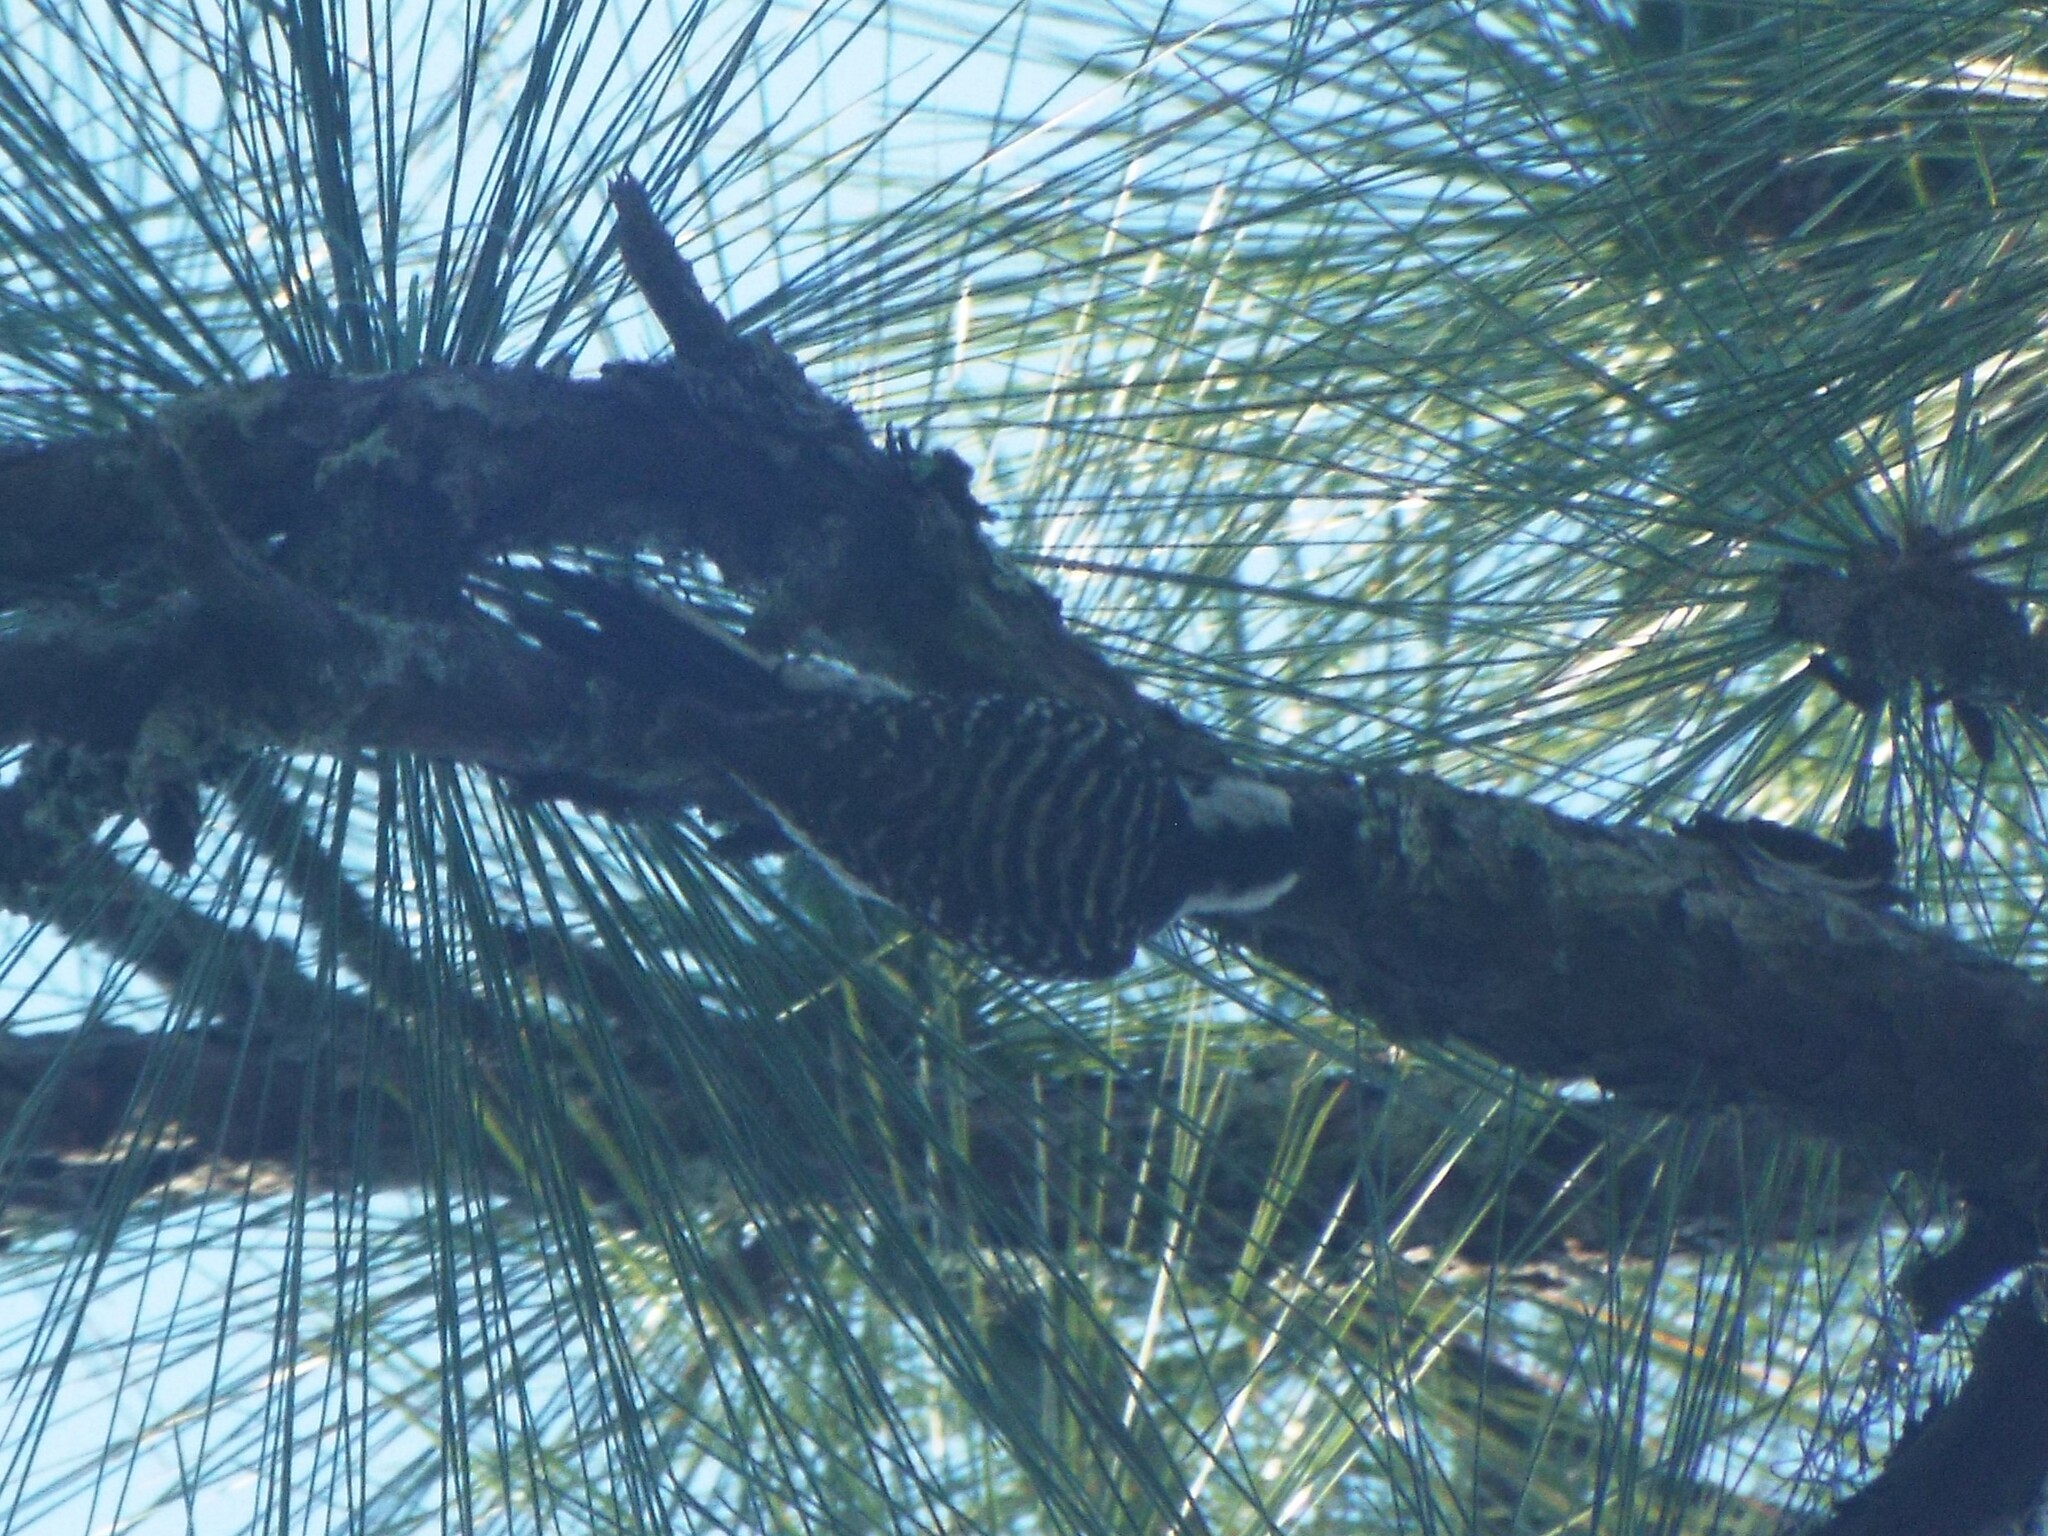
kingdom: Animalia
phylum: Chordata
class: Aves
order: Piciformes
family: Picidae
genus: Leuconotopicus
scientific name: Leuconotopicus borealis
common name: Red-cockaded woodpecker
